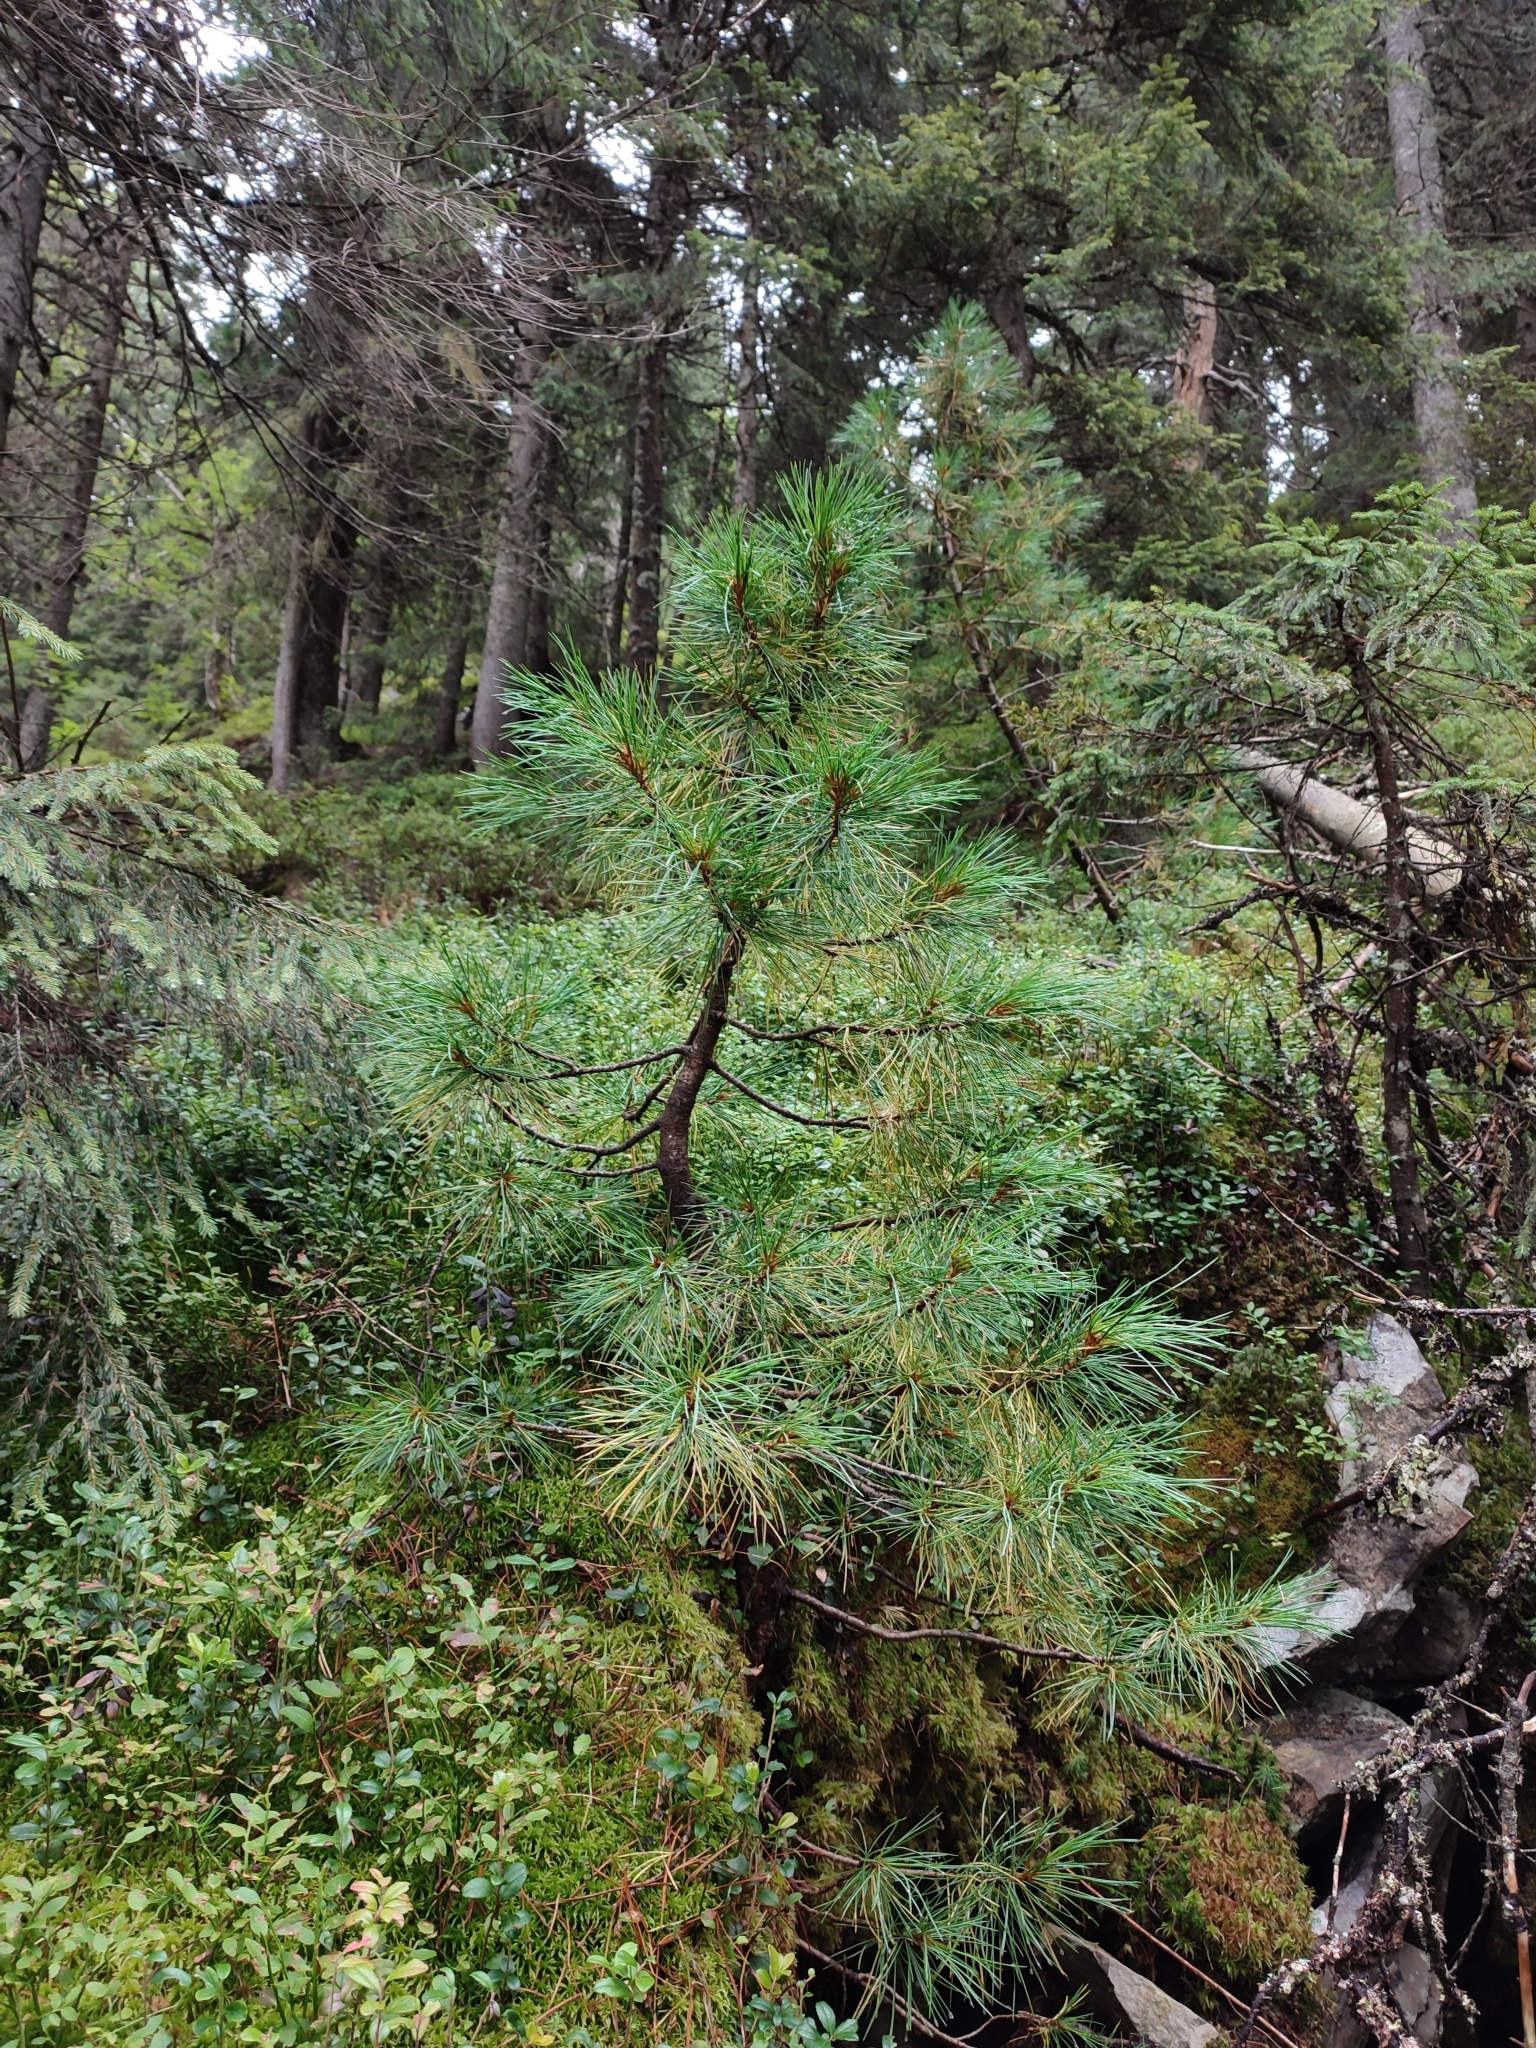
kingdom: Plantae
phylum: Tracheophyta
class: Pinopsida
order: Pinales
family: Pinaceae
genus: Pinus
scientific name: Pinus cembra
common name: Arolla pine
